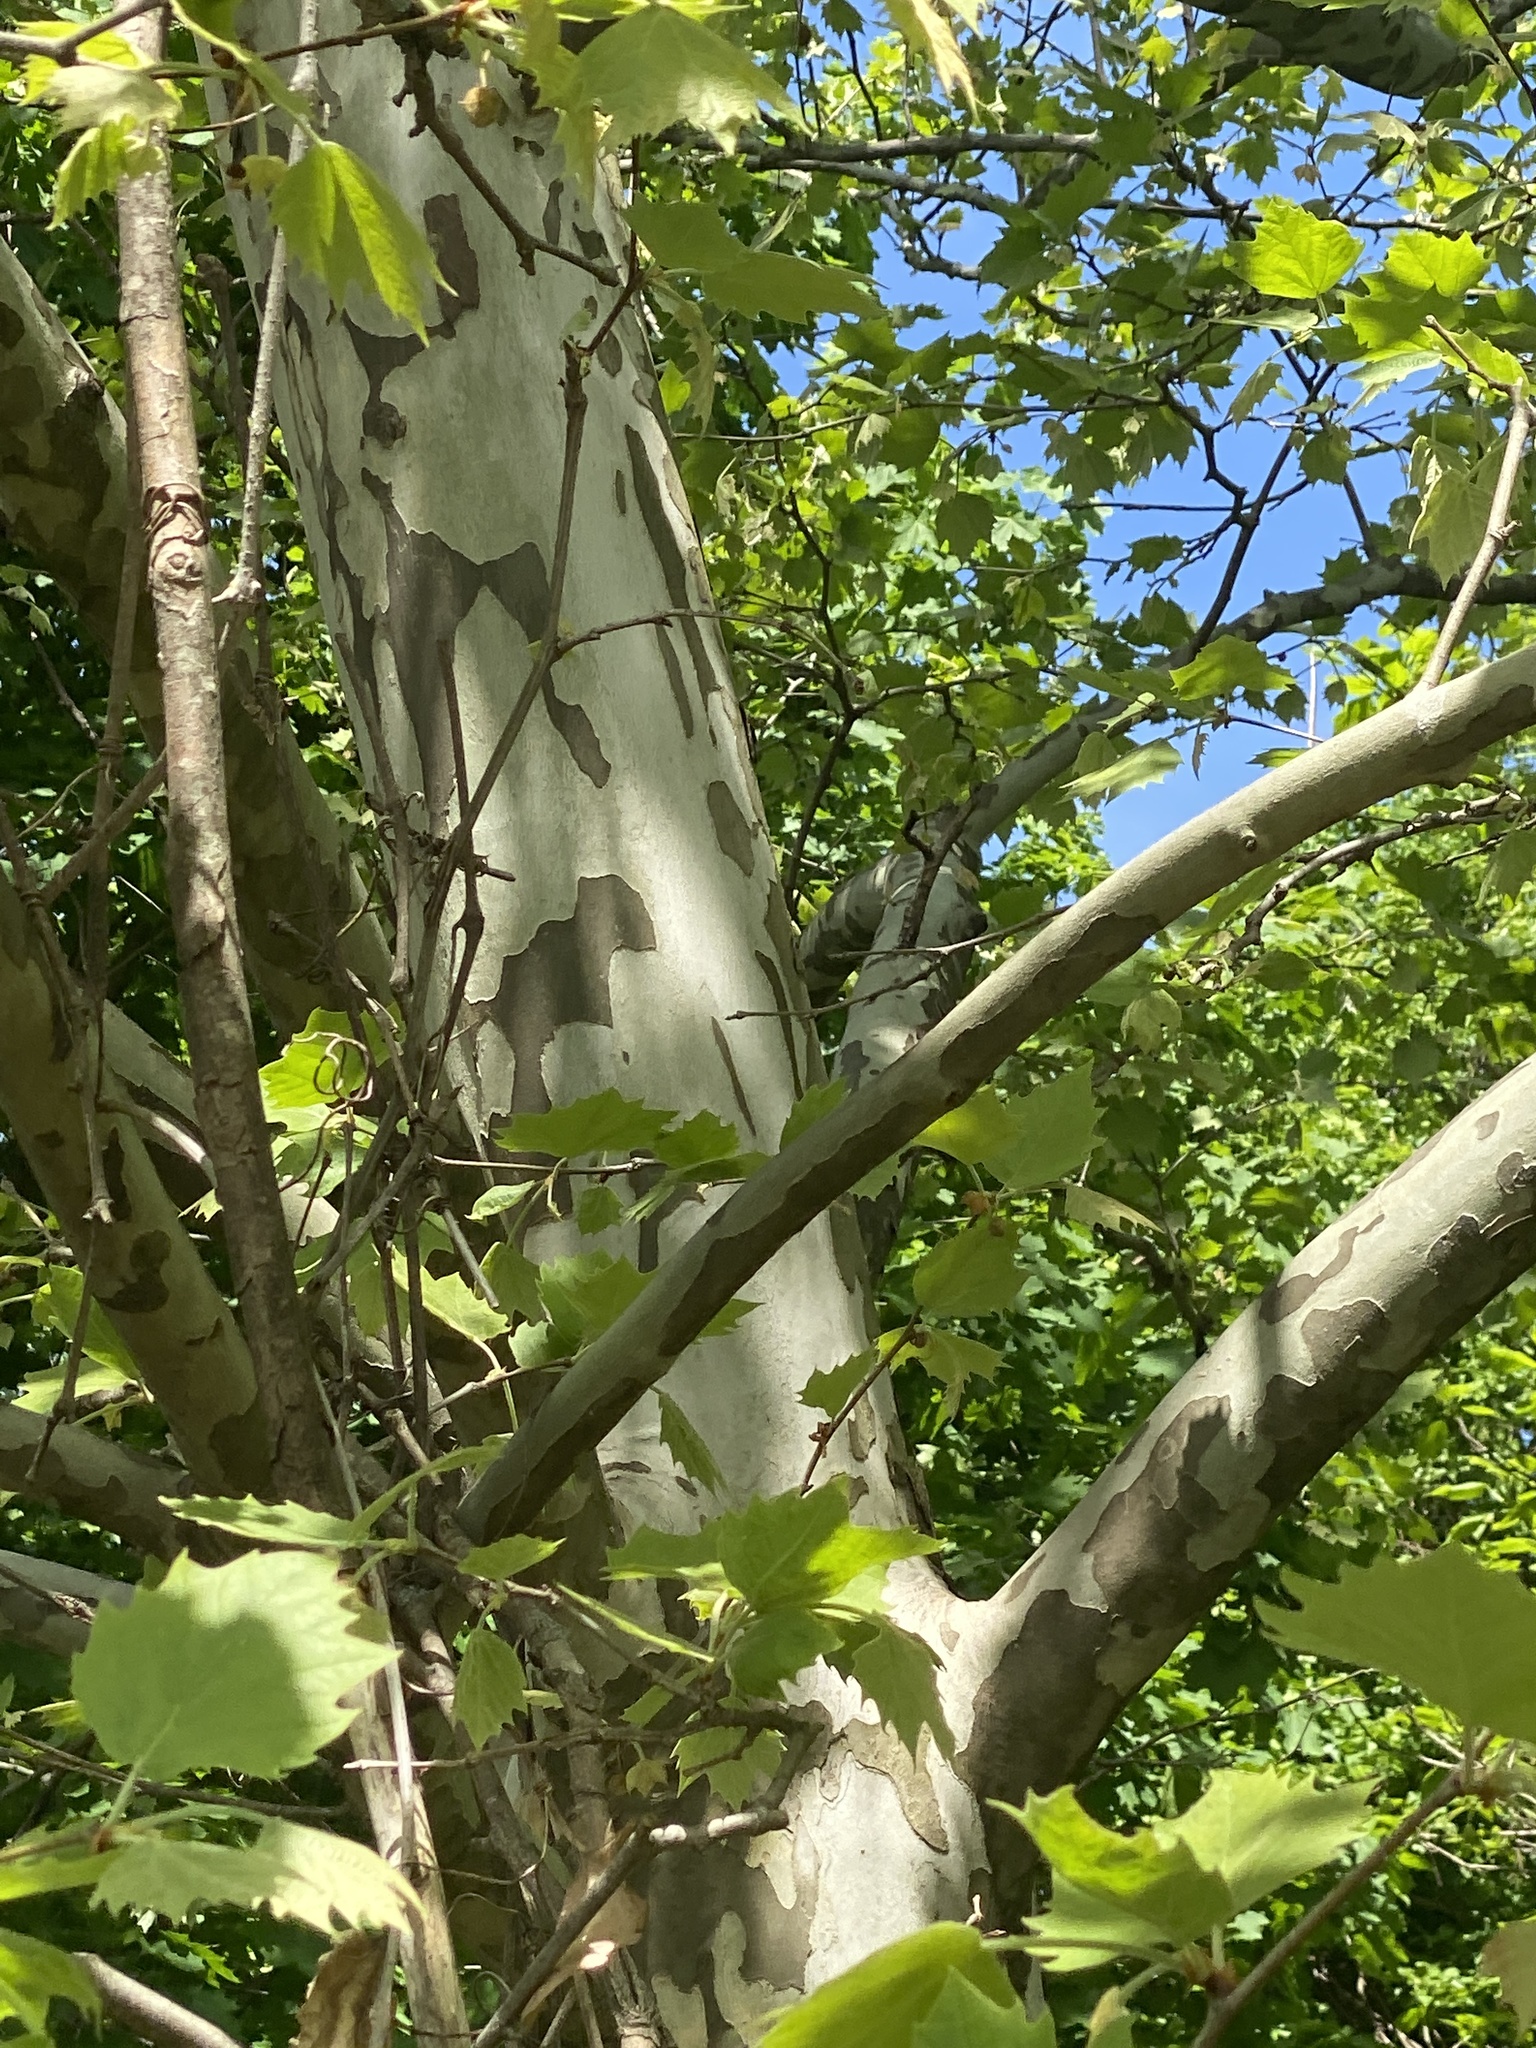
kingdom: Plantae
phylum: Tracheophyta
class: Magnoliopsida
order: Proteales
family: Platanaceae
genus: Platanus
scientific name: Platanus occidentalis
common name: American sycamore
